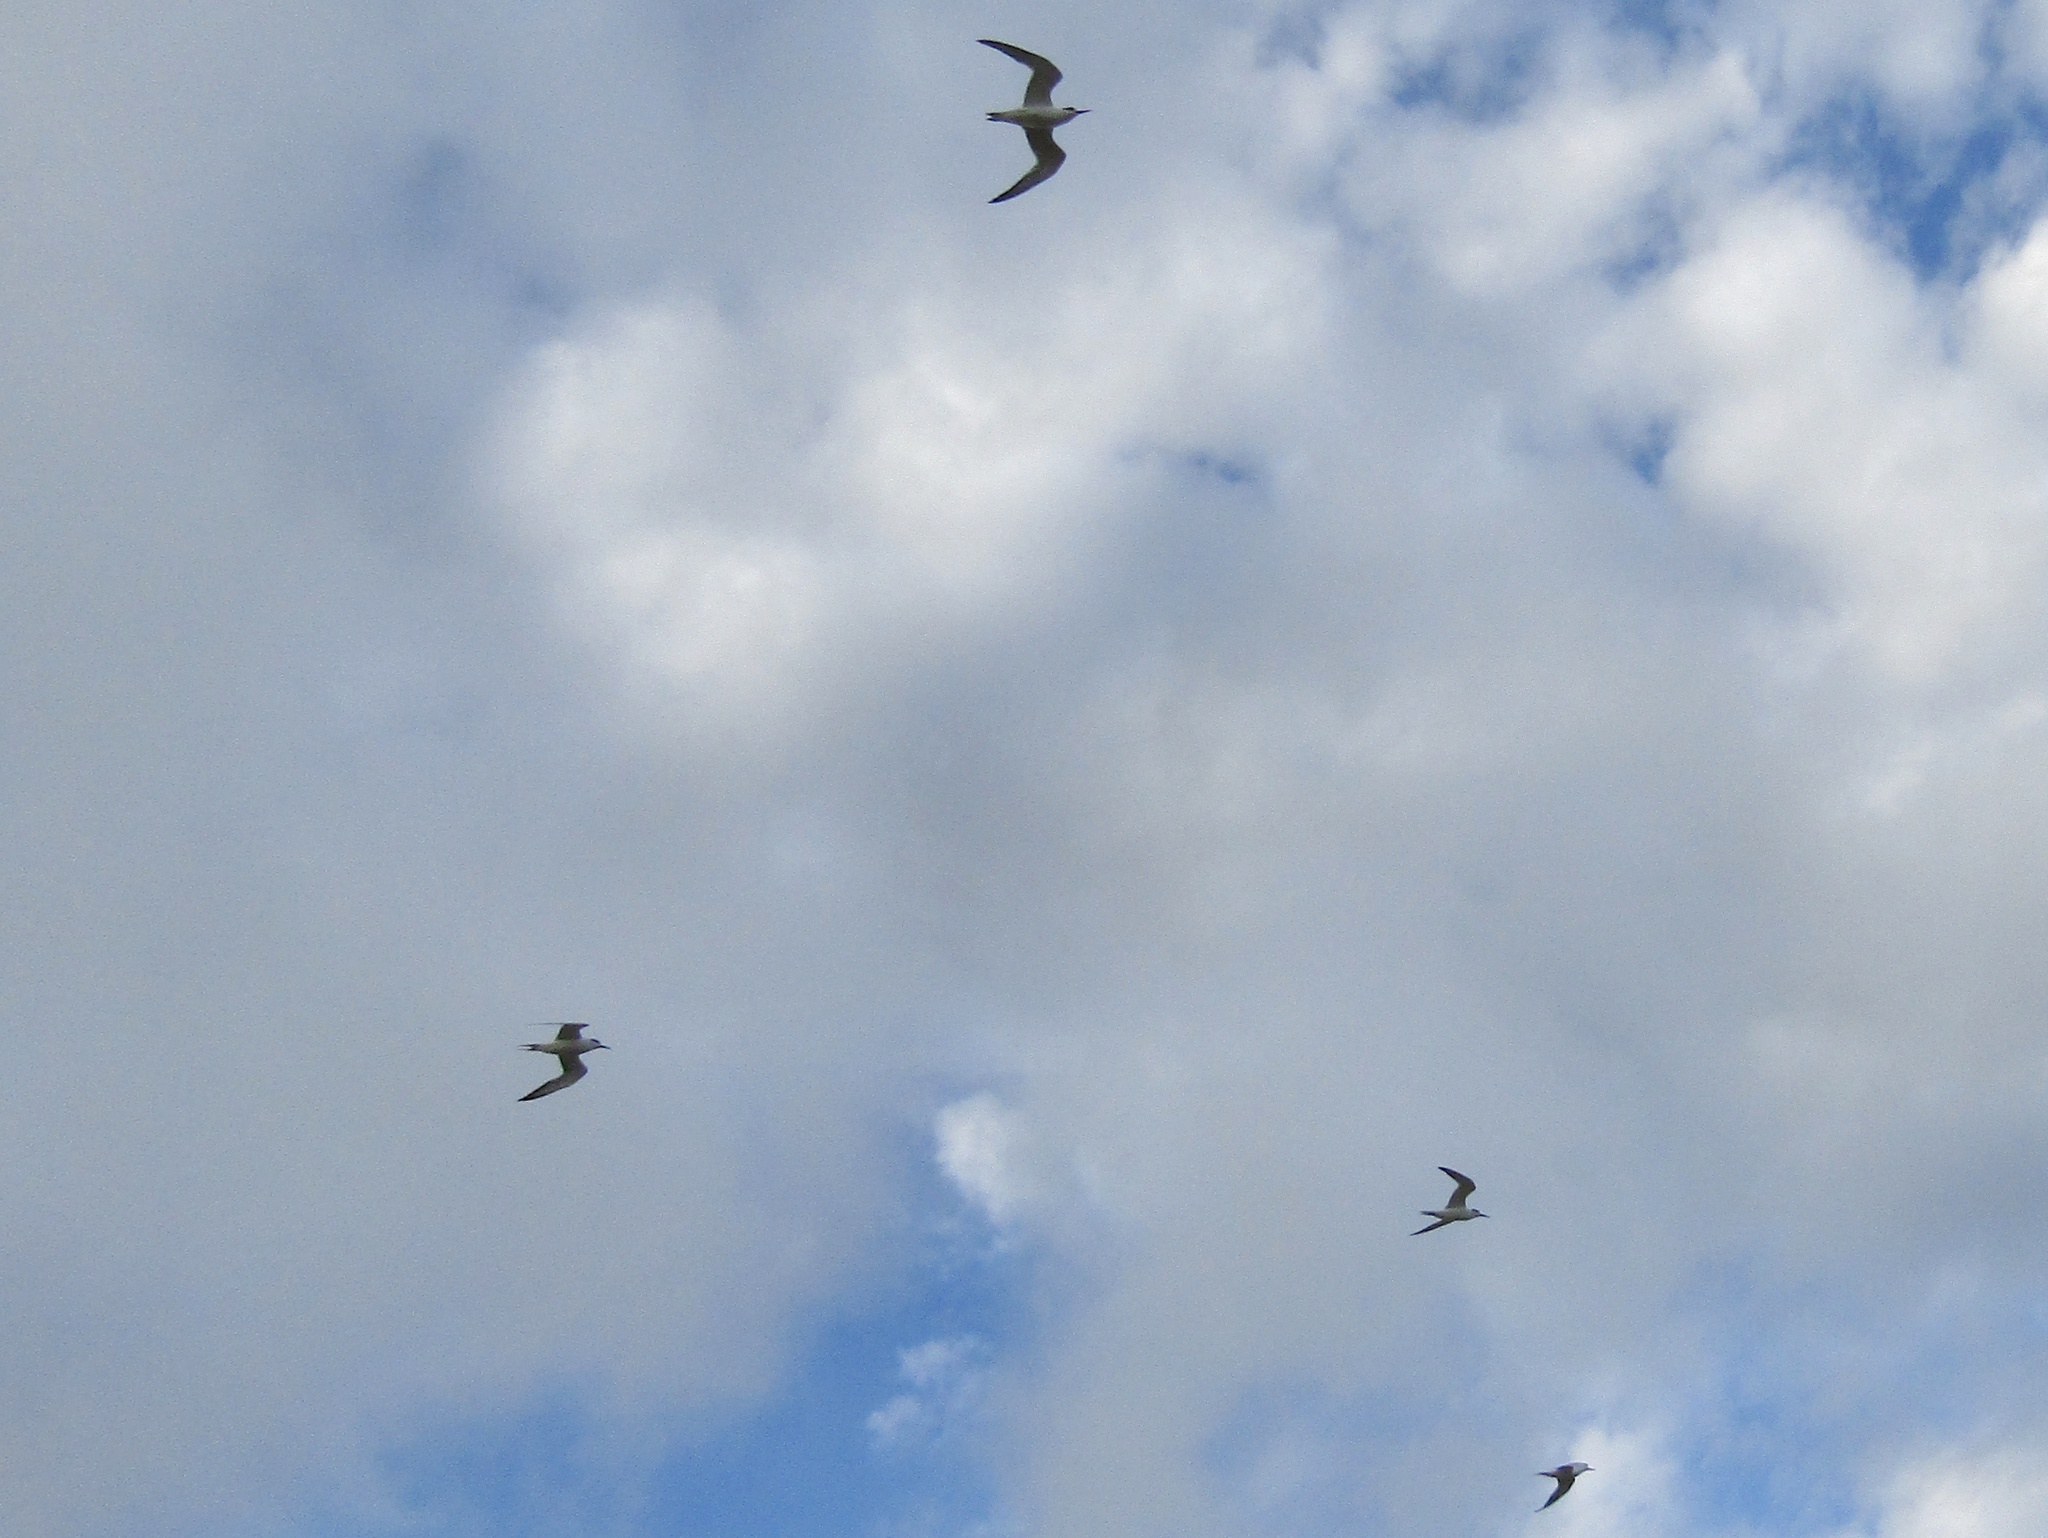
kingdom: Animalia
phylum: Chordata
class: Aves
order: Charadriiformes
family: Laridae
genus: Sterna
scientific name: Sterna hirundinacea
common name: South american tern
